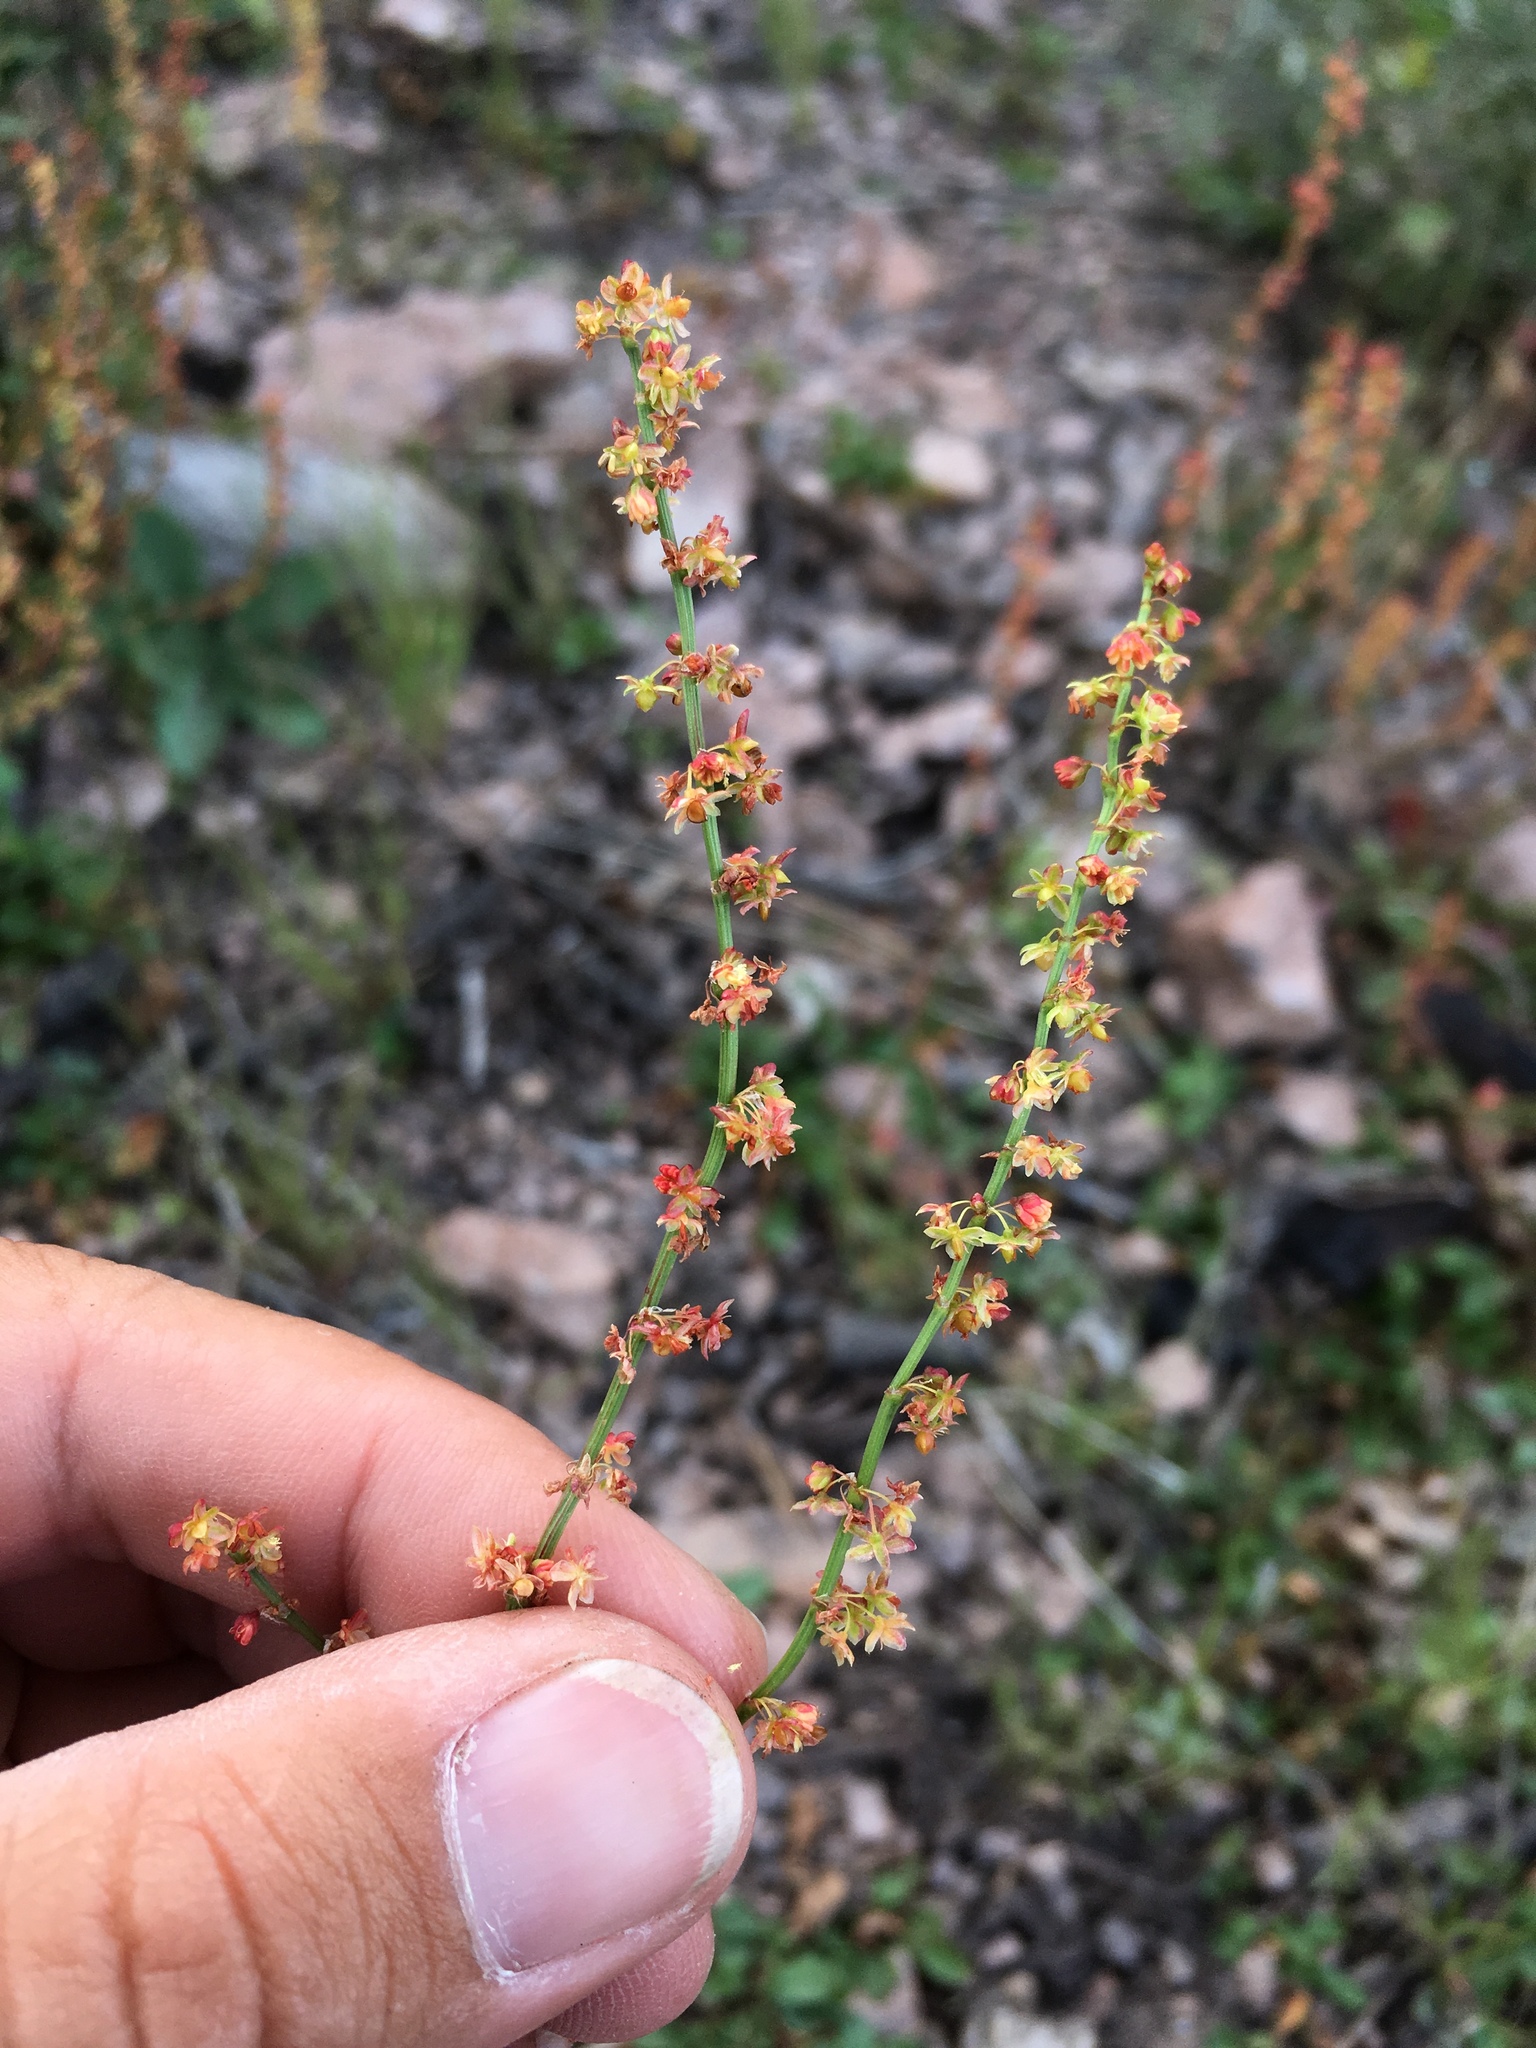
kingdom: Plantae
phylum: Tracheophyta
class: Magnoliopsida
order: Caryophyllales
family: Polygonaceae
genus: Rumex
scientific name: Rumex acetosella
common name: Common sheep sorrel
